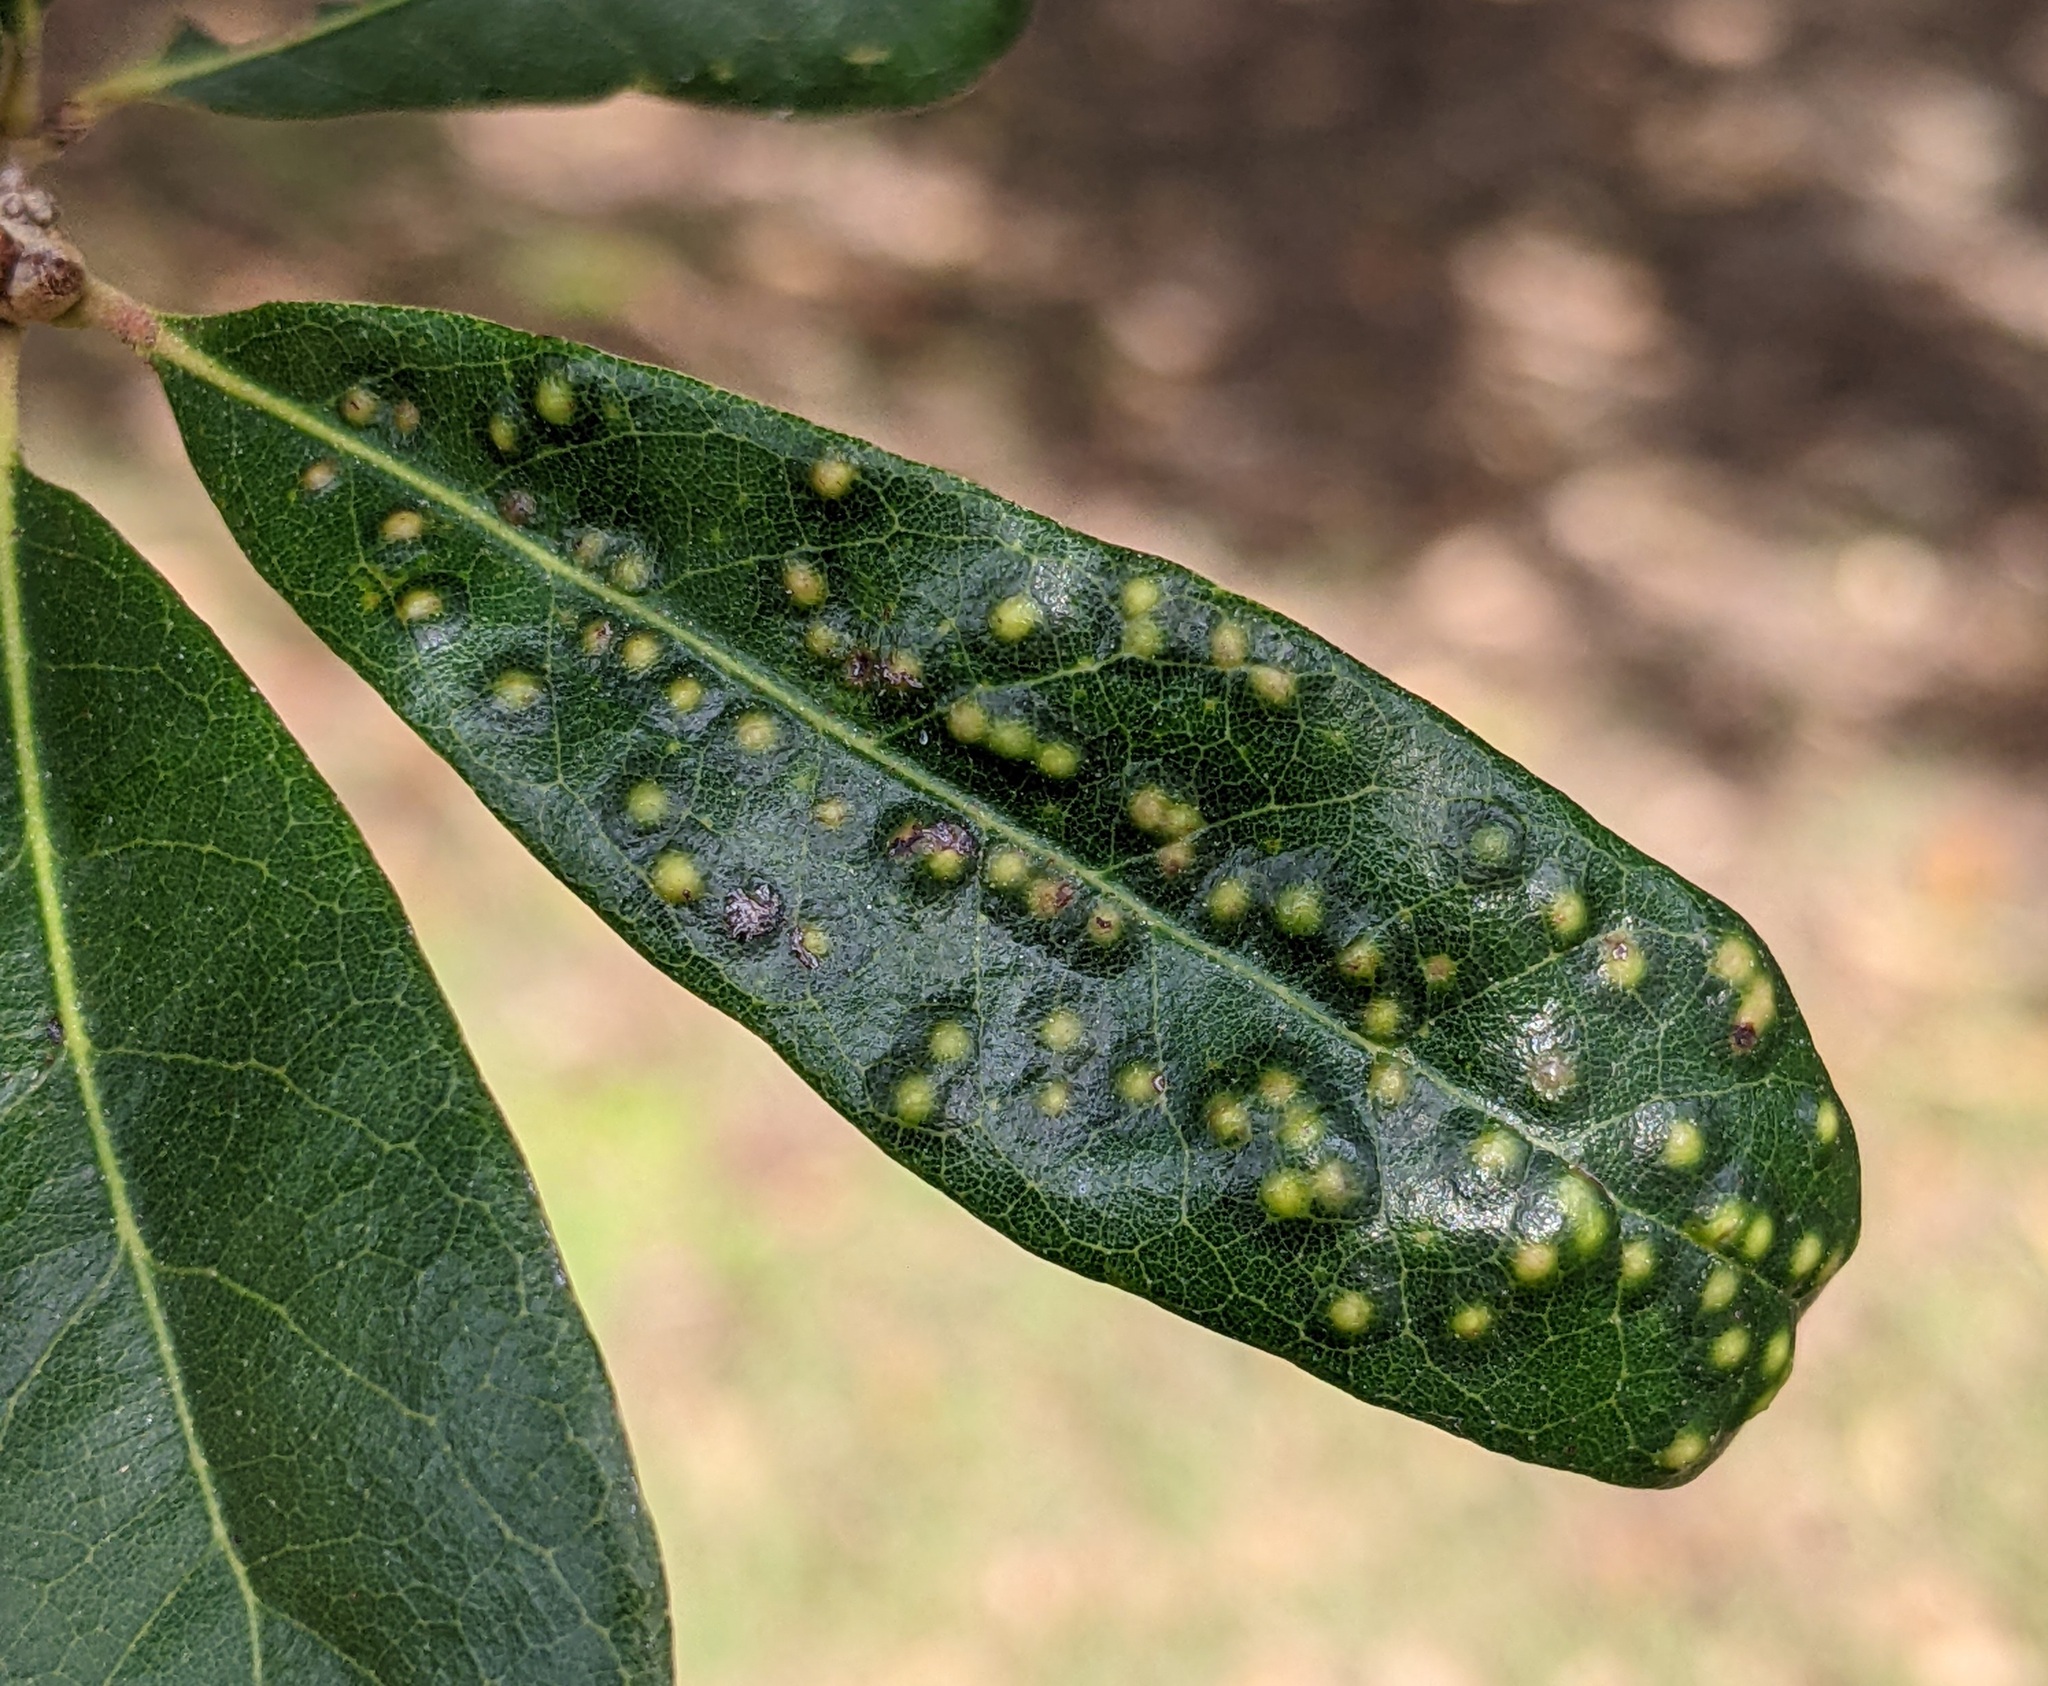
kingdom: Animalia
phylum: Arthropoda
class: Insecta
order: Hymenoptera
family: Cynipidae
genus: Neuroterus
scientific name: Neuroterus
